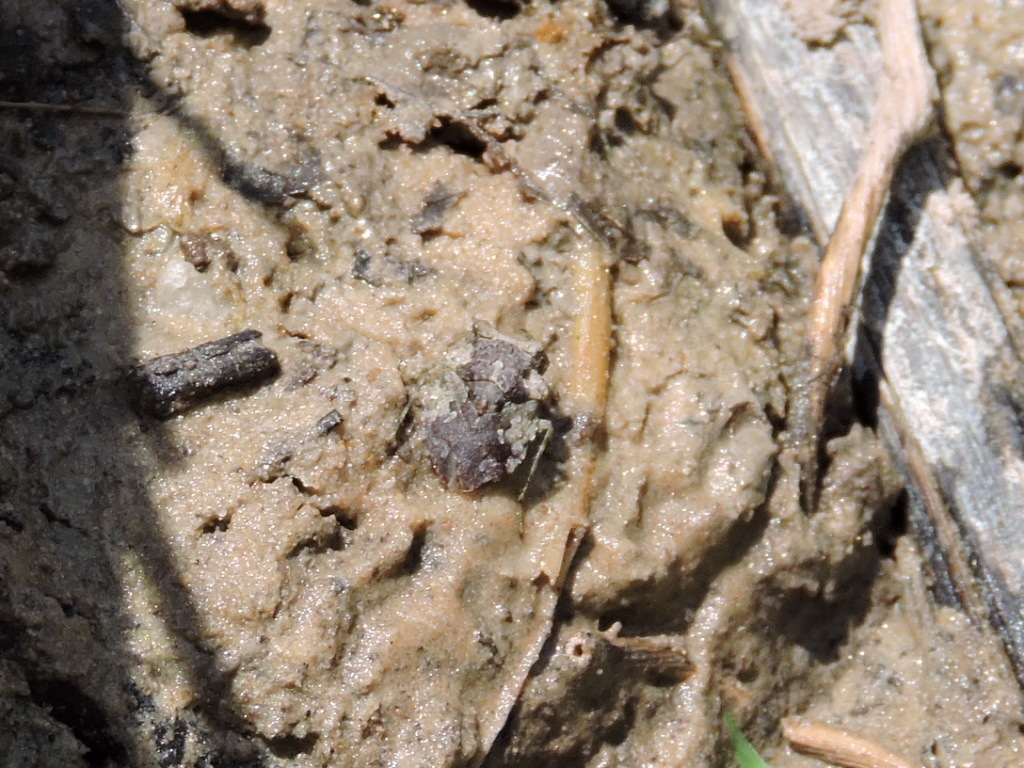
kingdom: Animalia
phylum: Arthropoda
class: Insecta
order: Hemiptera
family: Gelastocoridae
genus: Gelastocoris
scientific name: Gelastocoris oculatus
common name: Toad bug
